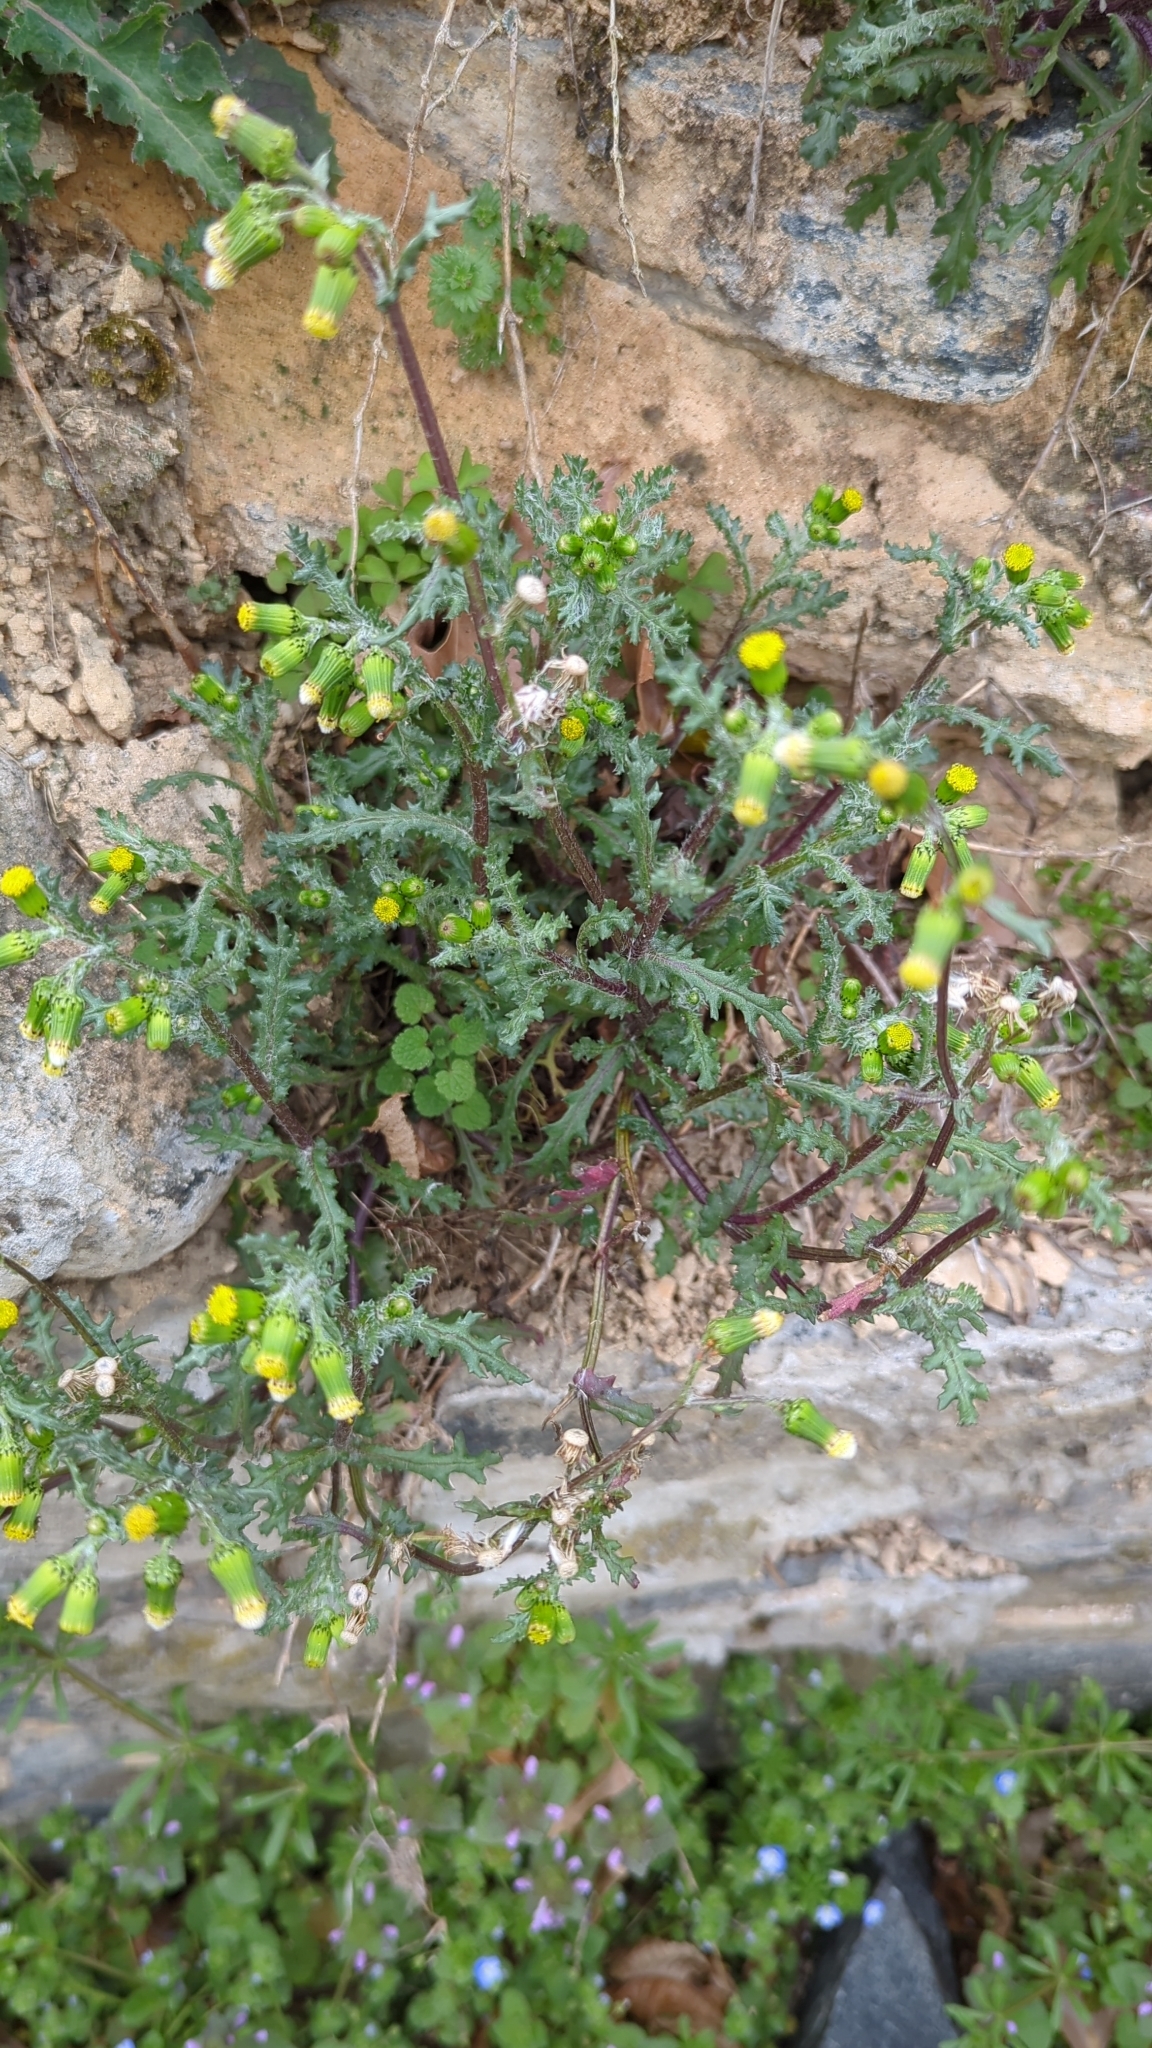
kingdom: Plantae
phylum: Tracheophyta
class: Magnoliopsida
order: Asterales
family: Asteraceae
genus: Senecio
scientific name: Senecio vulgaris
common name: Old-man-in-the-spring
